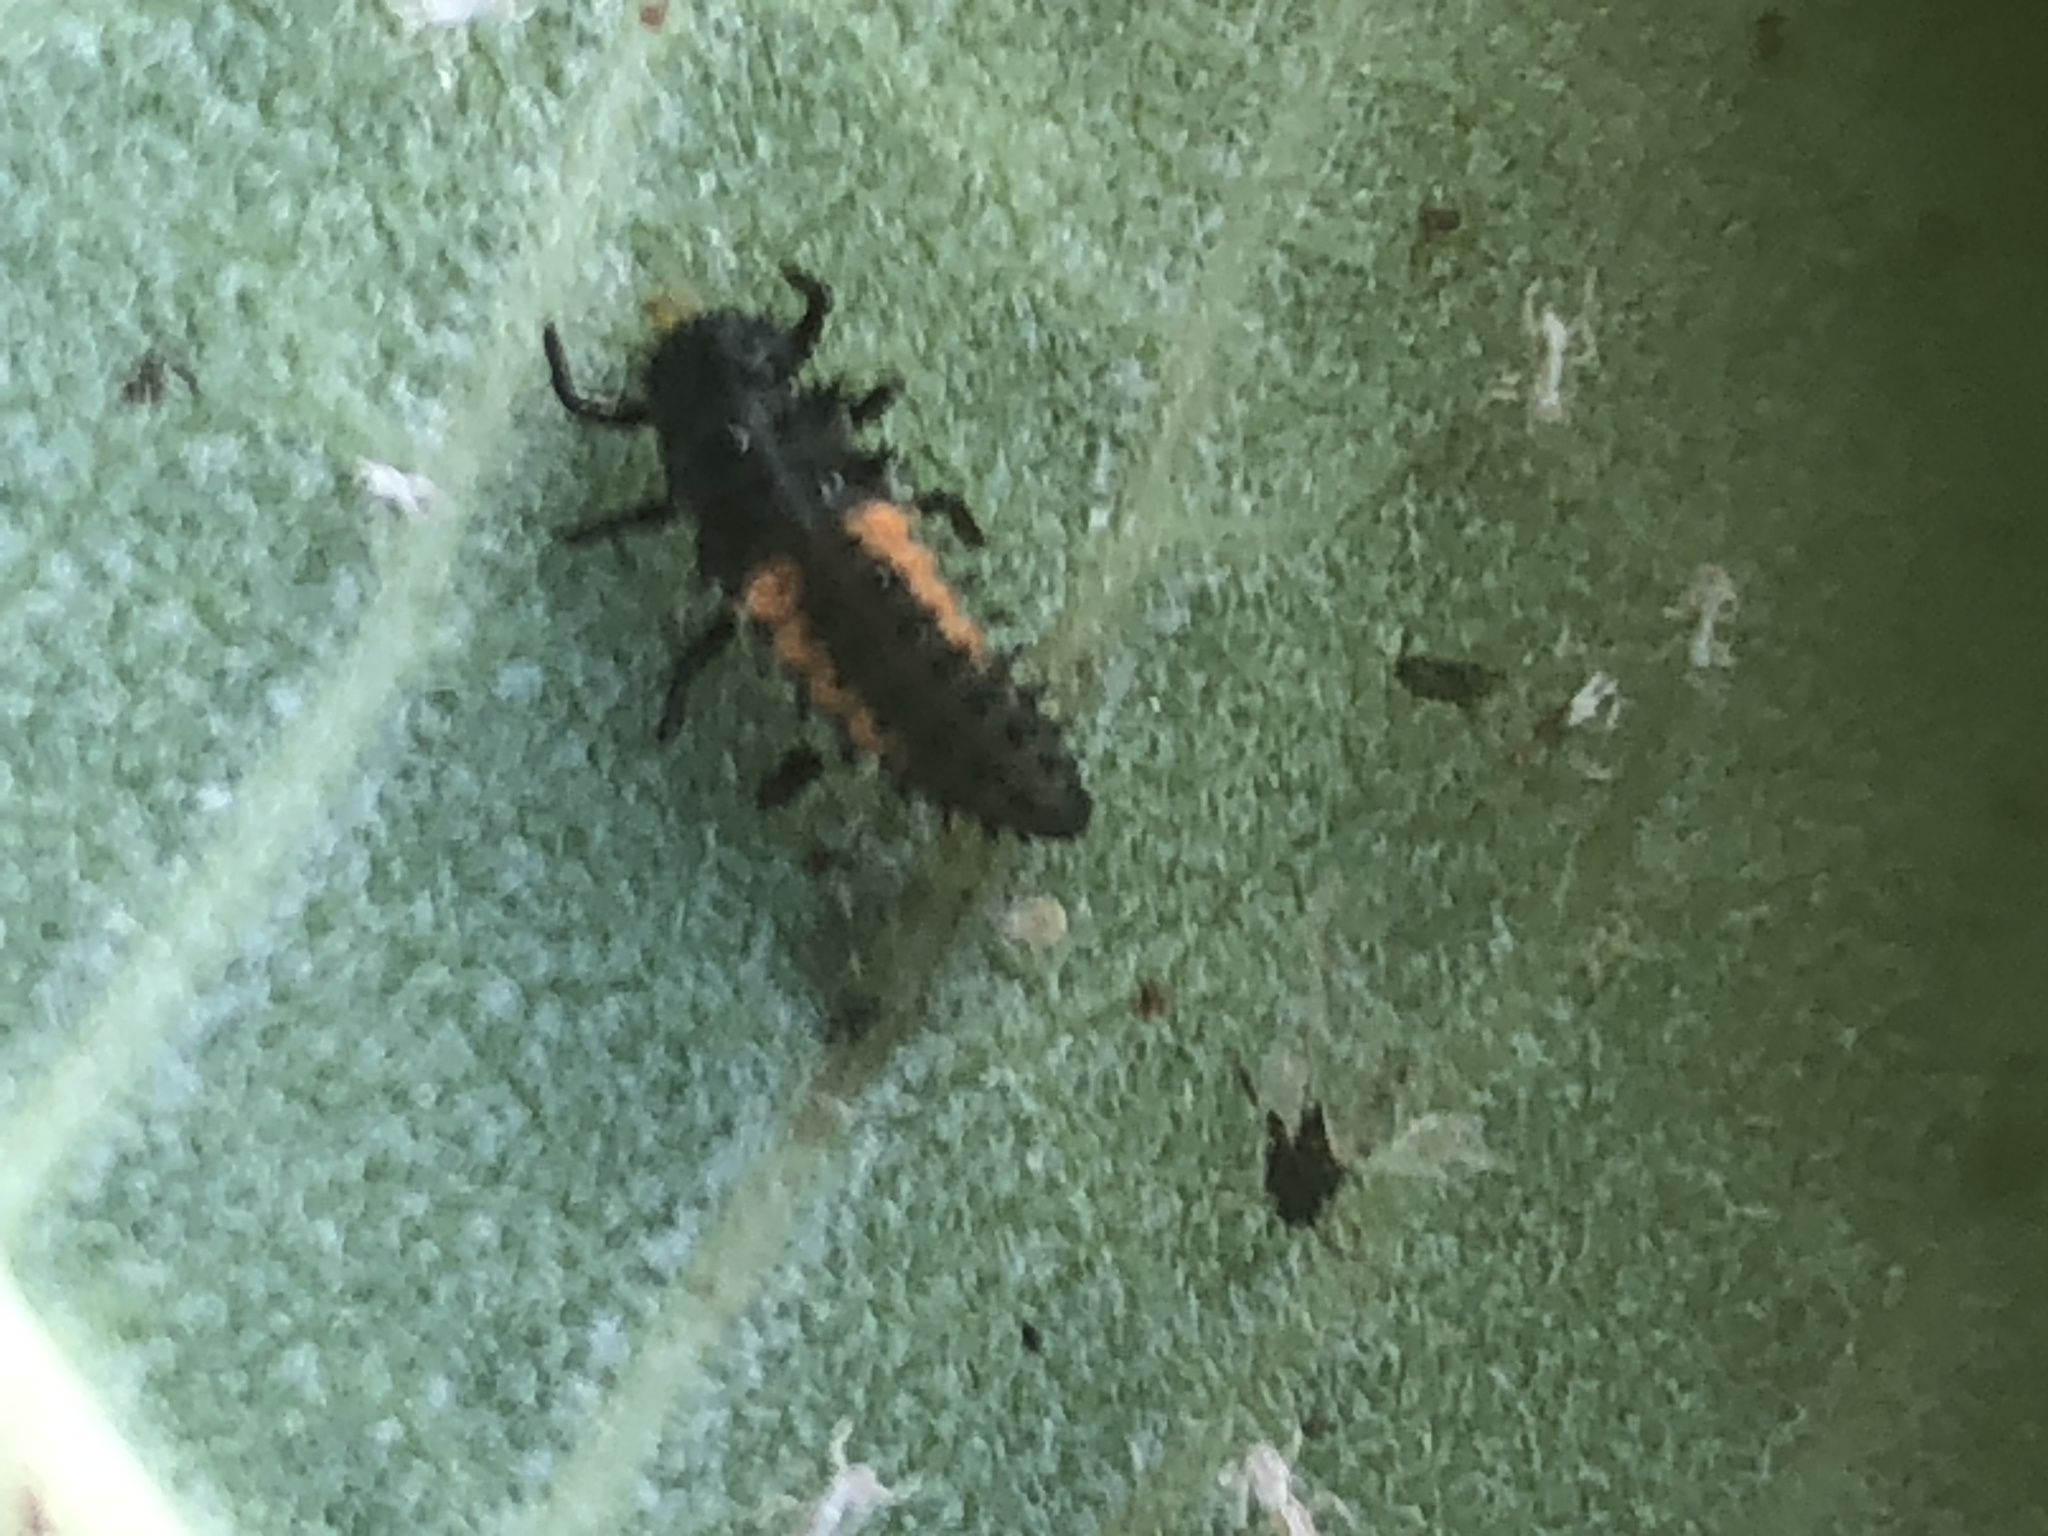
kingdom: Animalia
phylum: Arthropoda
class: Insecta
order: Coleoptera
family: Coccinellidae
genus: Harmonia
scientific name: Harmonia axyridis
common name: Harlequin ladybird
